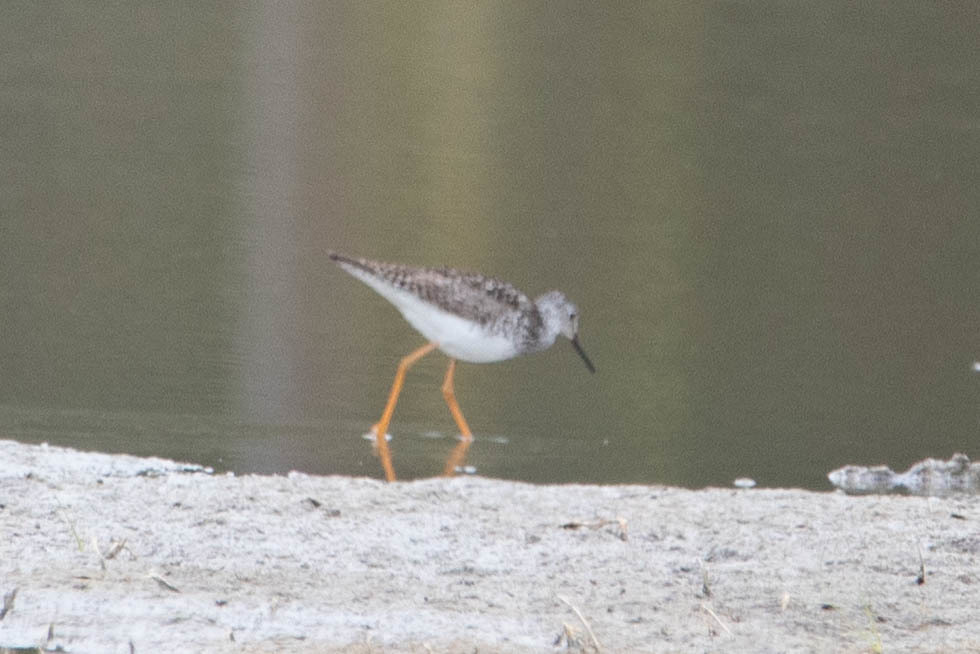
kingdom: Animalia
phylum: Chordata
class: Aves
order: Charadriiformes
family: Scolopacidae
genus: Tringa
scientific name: Tringa flavipes
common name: Lesser yellowlegs
